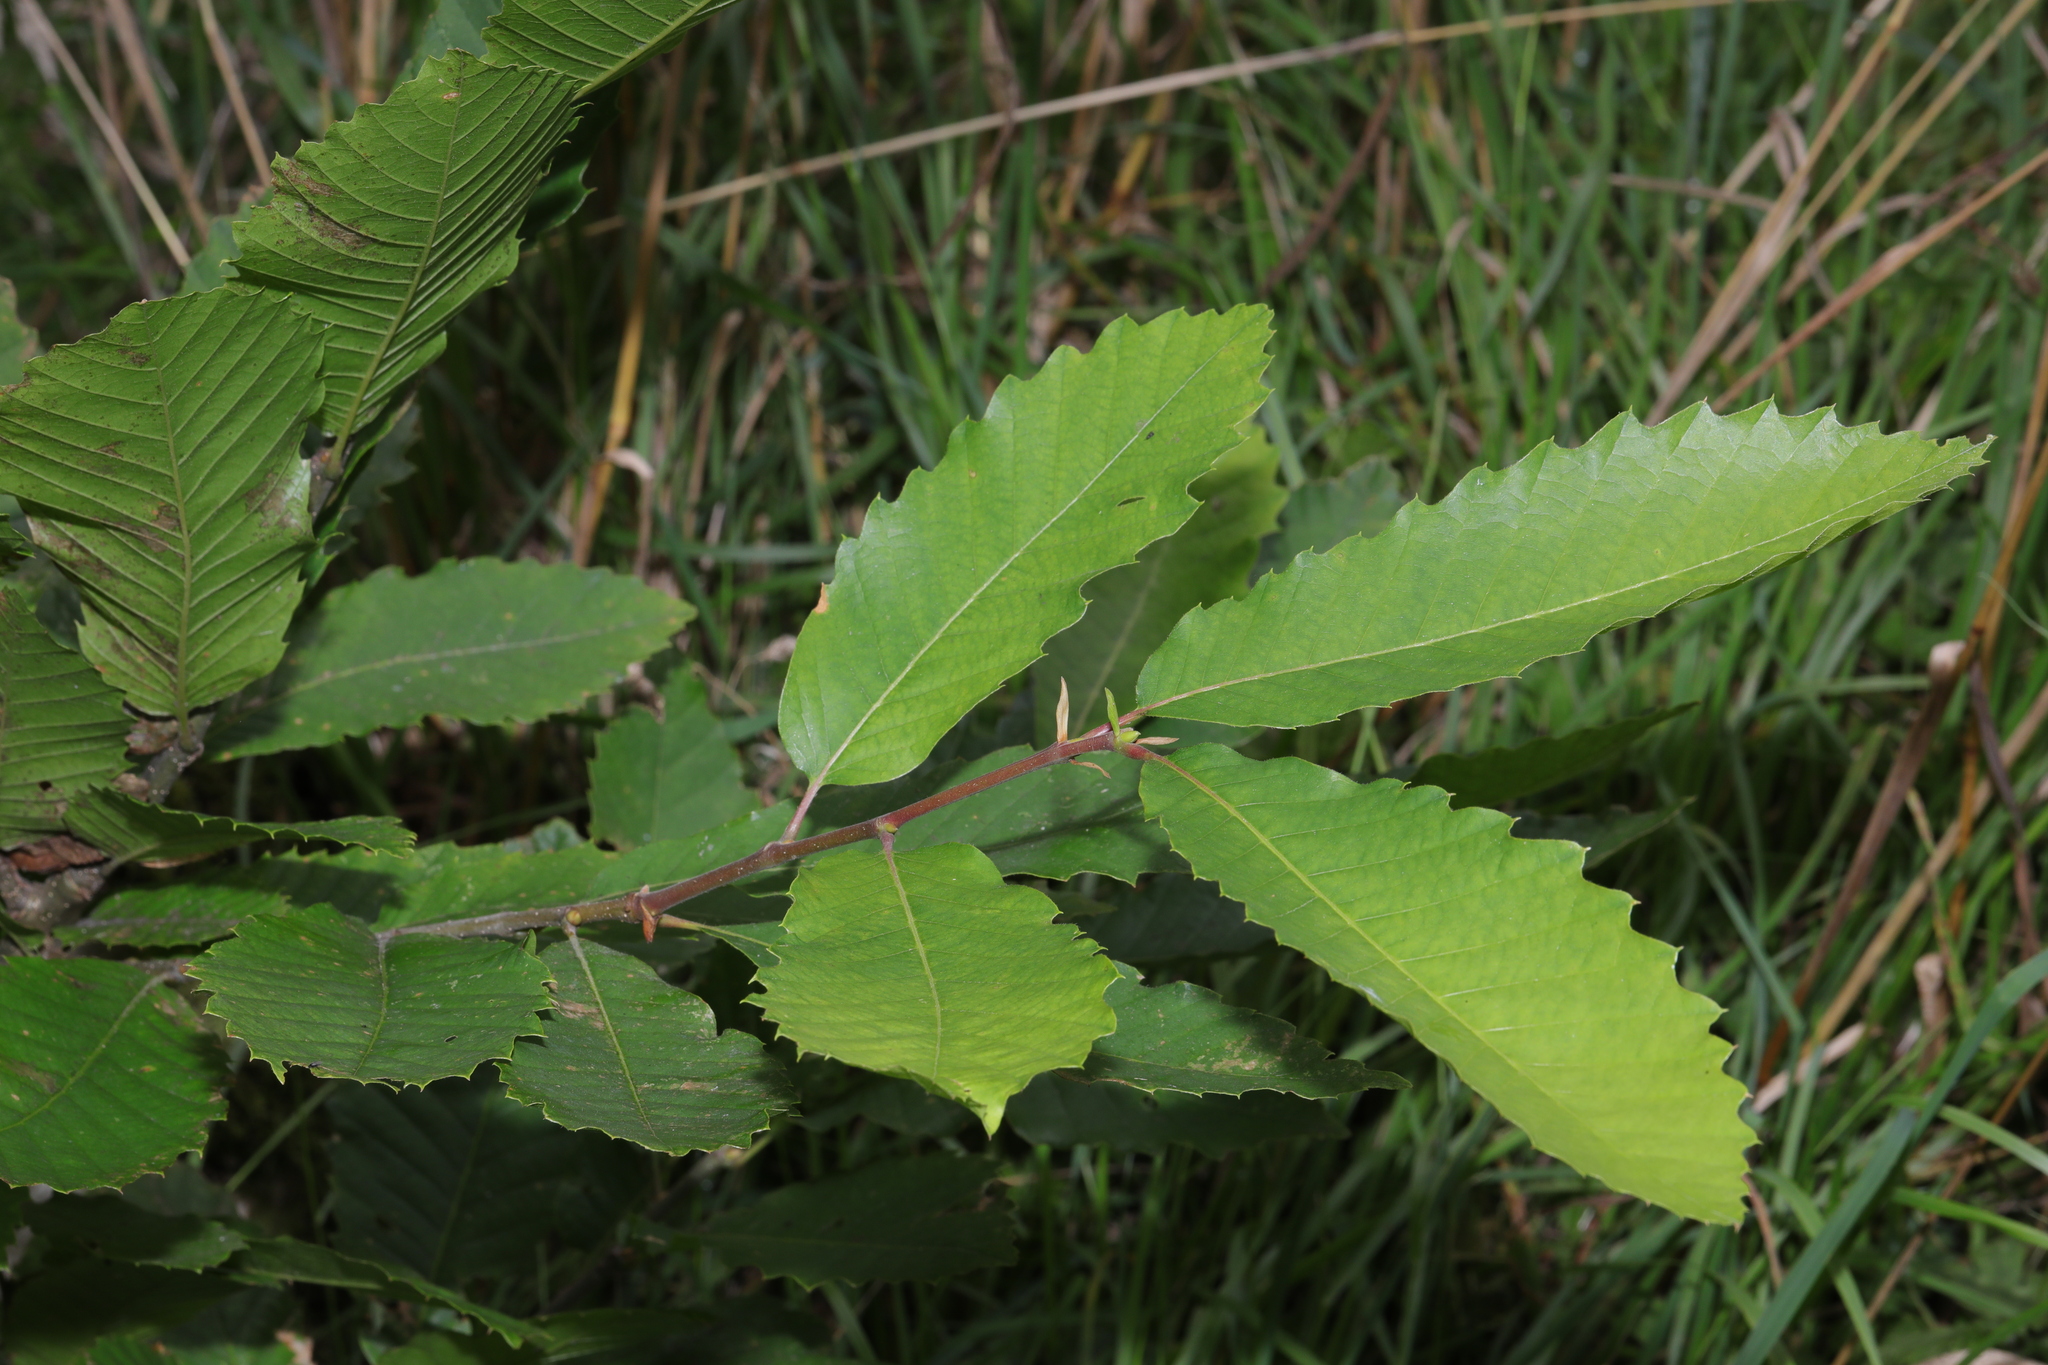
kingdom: Plantae
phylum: Tracheophyta
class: Magnoliopsida
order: Fagales
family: Fagaceae
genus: Castanea
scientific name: Castanea sativa
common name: Sweet chestnut
